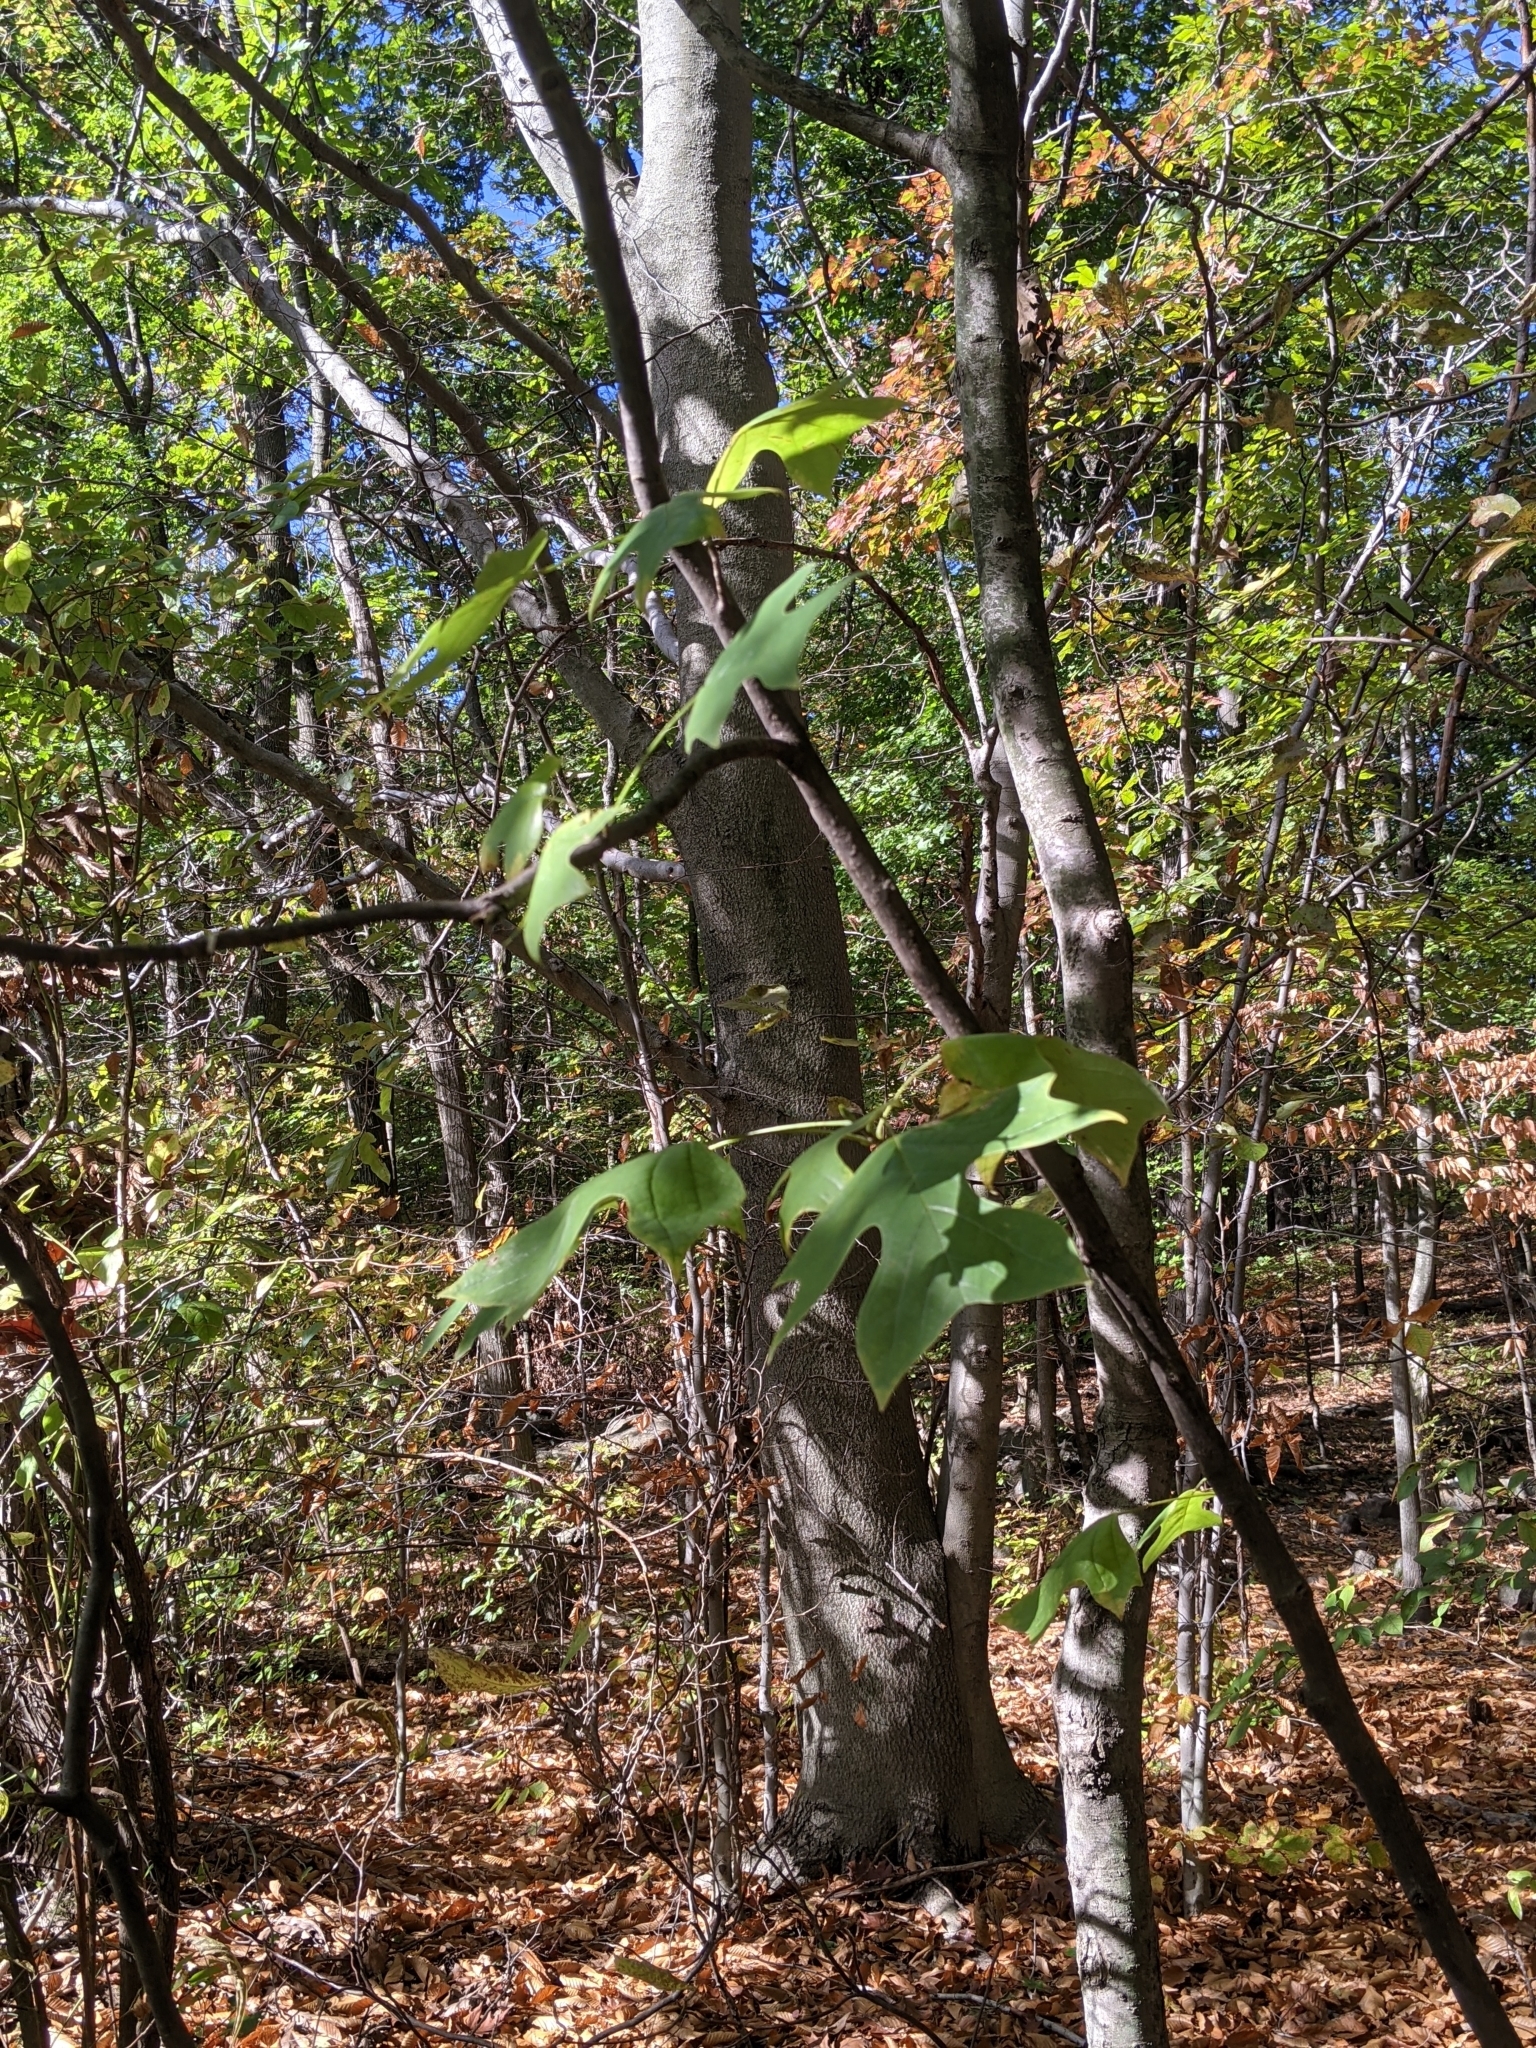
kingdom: Plantae
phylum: Tracheophyta
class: Magnoliopsida
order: Magnoliales
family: Magnoliaceae
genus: Liriodendron
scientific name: Liriodendron tulipifera
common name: Tulip tree
